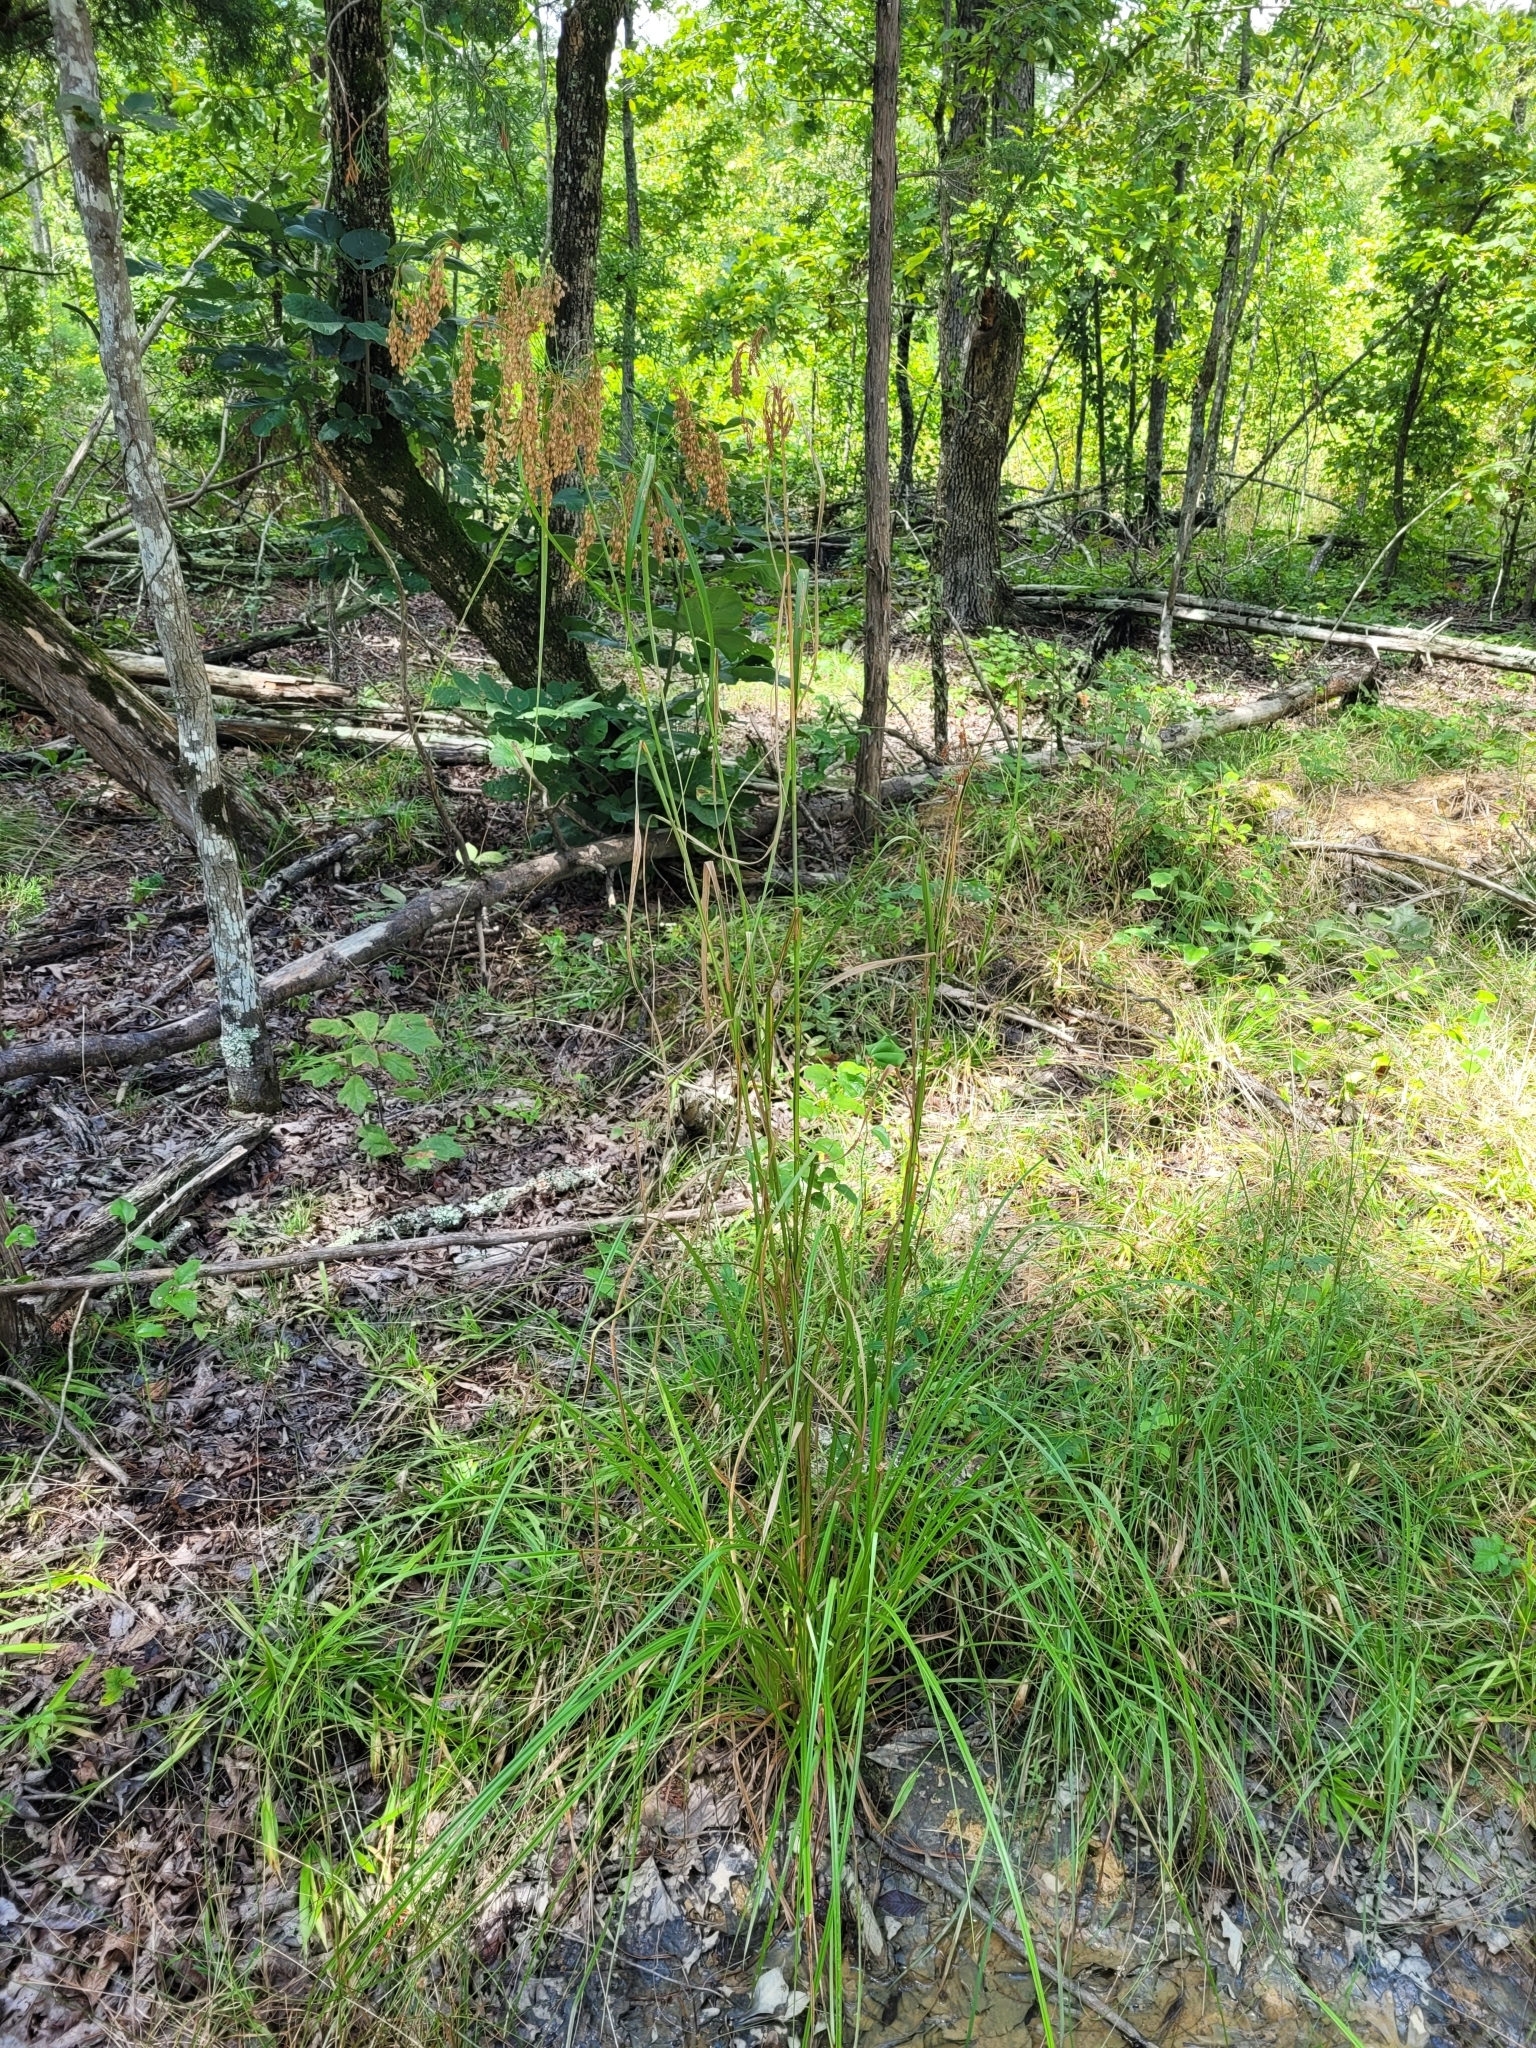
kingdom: Plantae
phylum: Tracheophyta
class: Liliopsida
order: Poales
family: Cyperaceae
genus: Scirpus
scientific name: Scirpus cyperinus
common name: Black-sheathed bulrush
